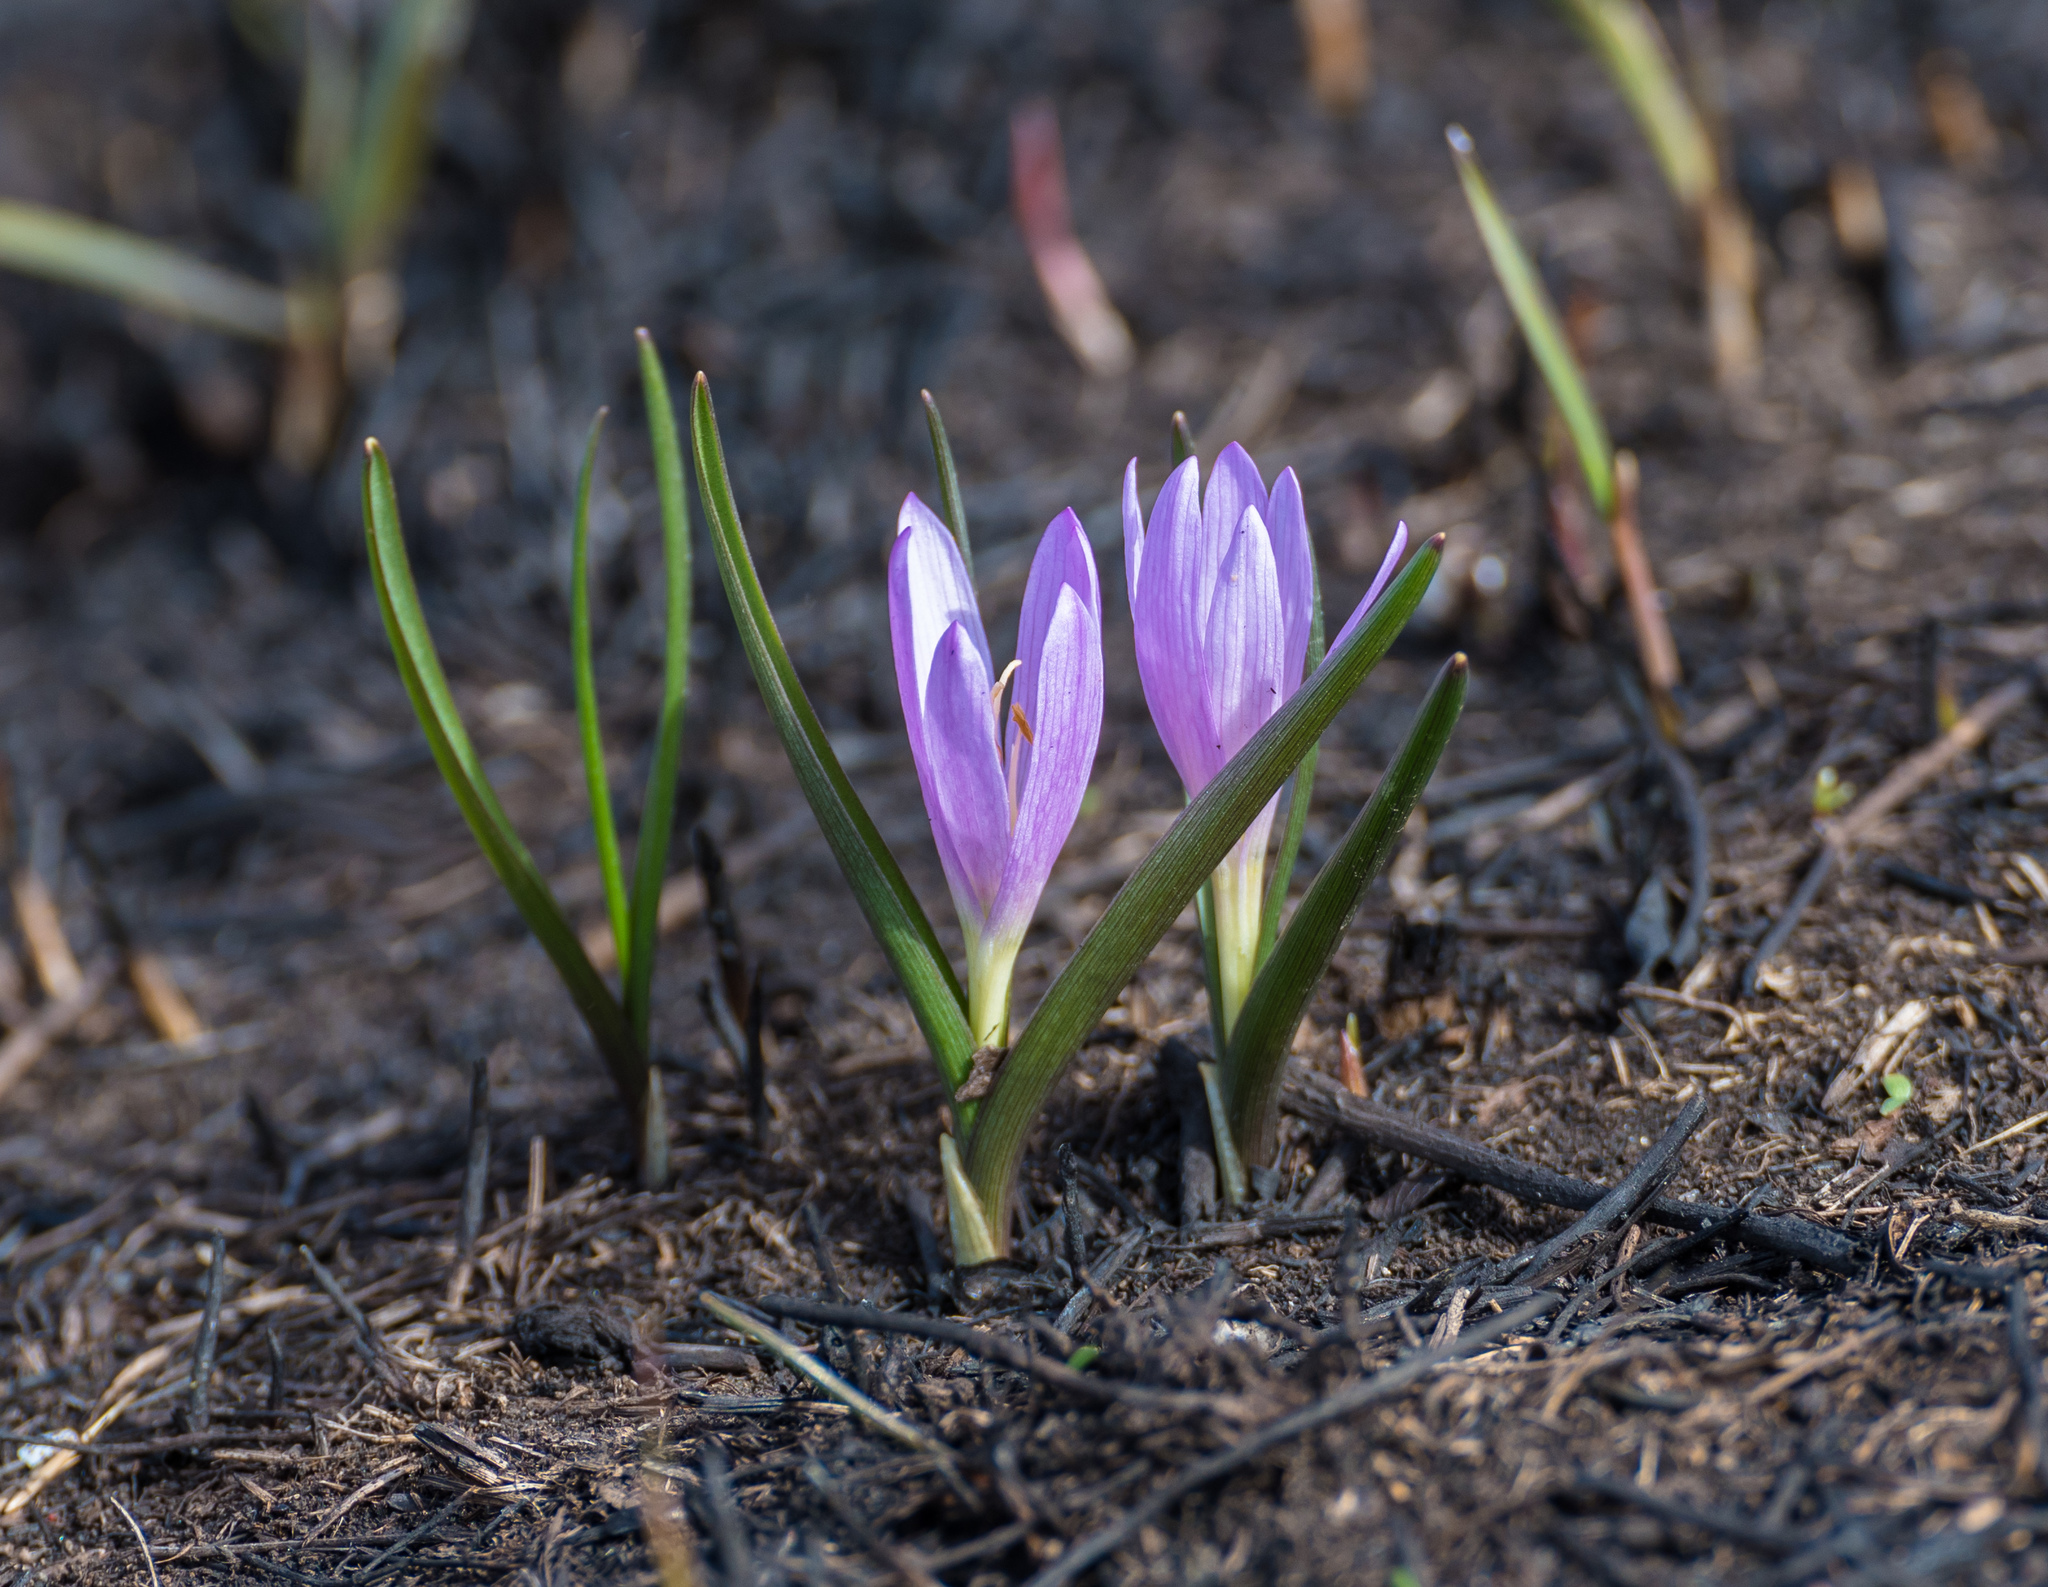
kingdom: Plantae
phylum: Tracheophyta
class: Liliopsida
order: Liliales
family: Colchicaceae
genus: Colchicum
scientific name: Colchicum bulbocodium
